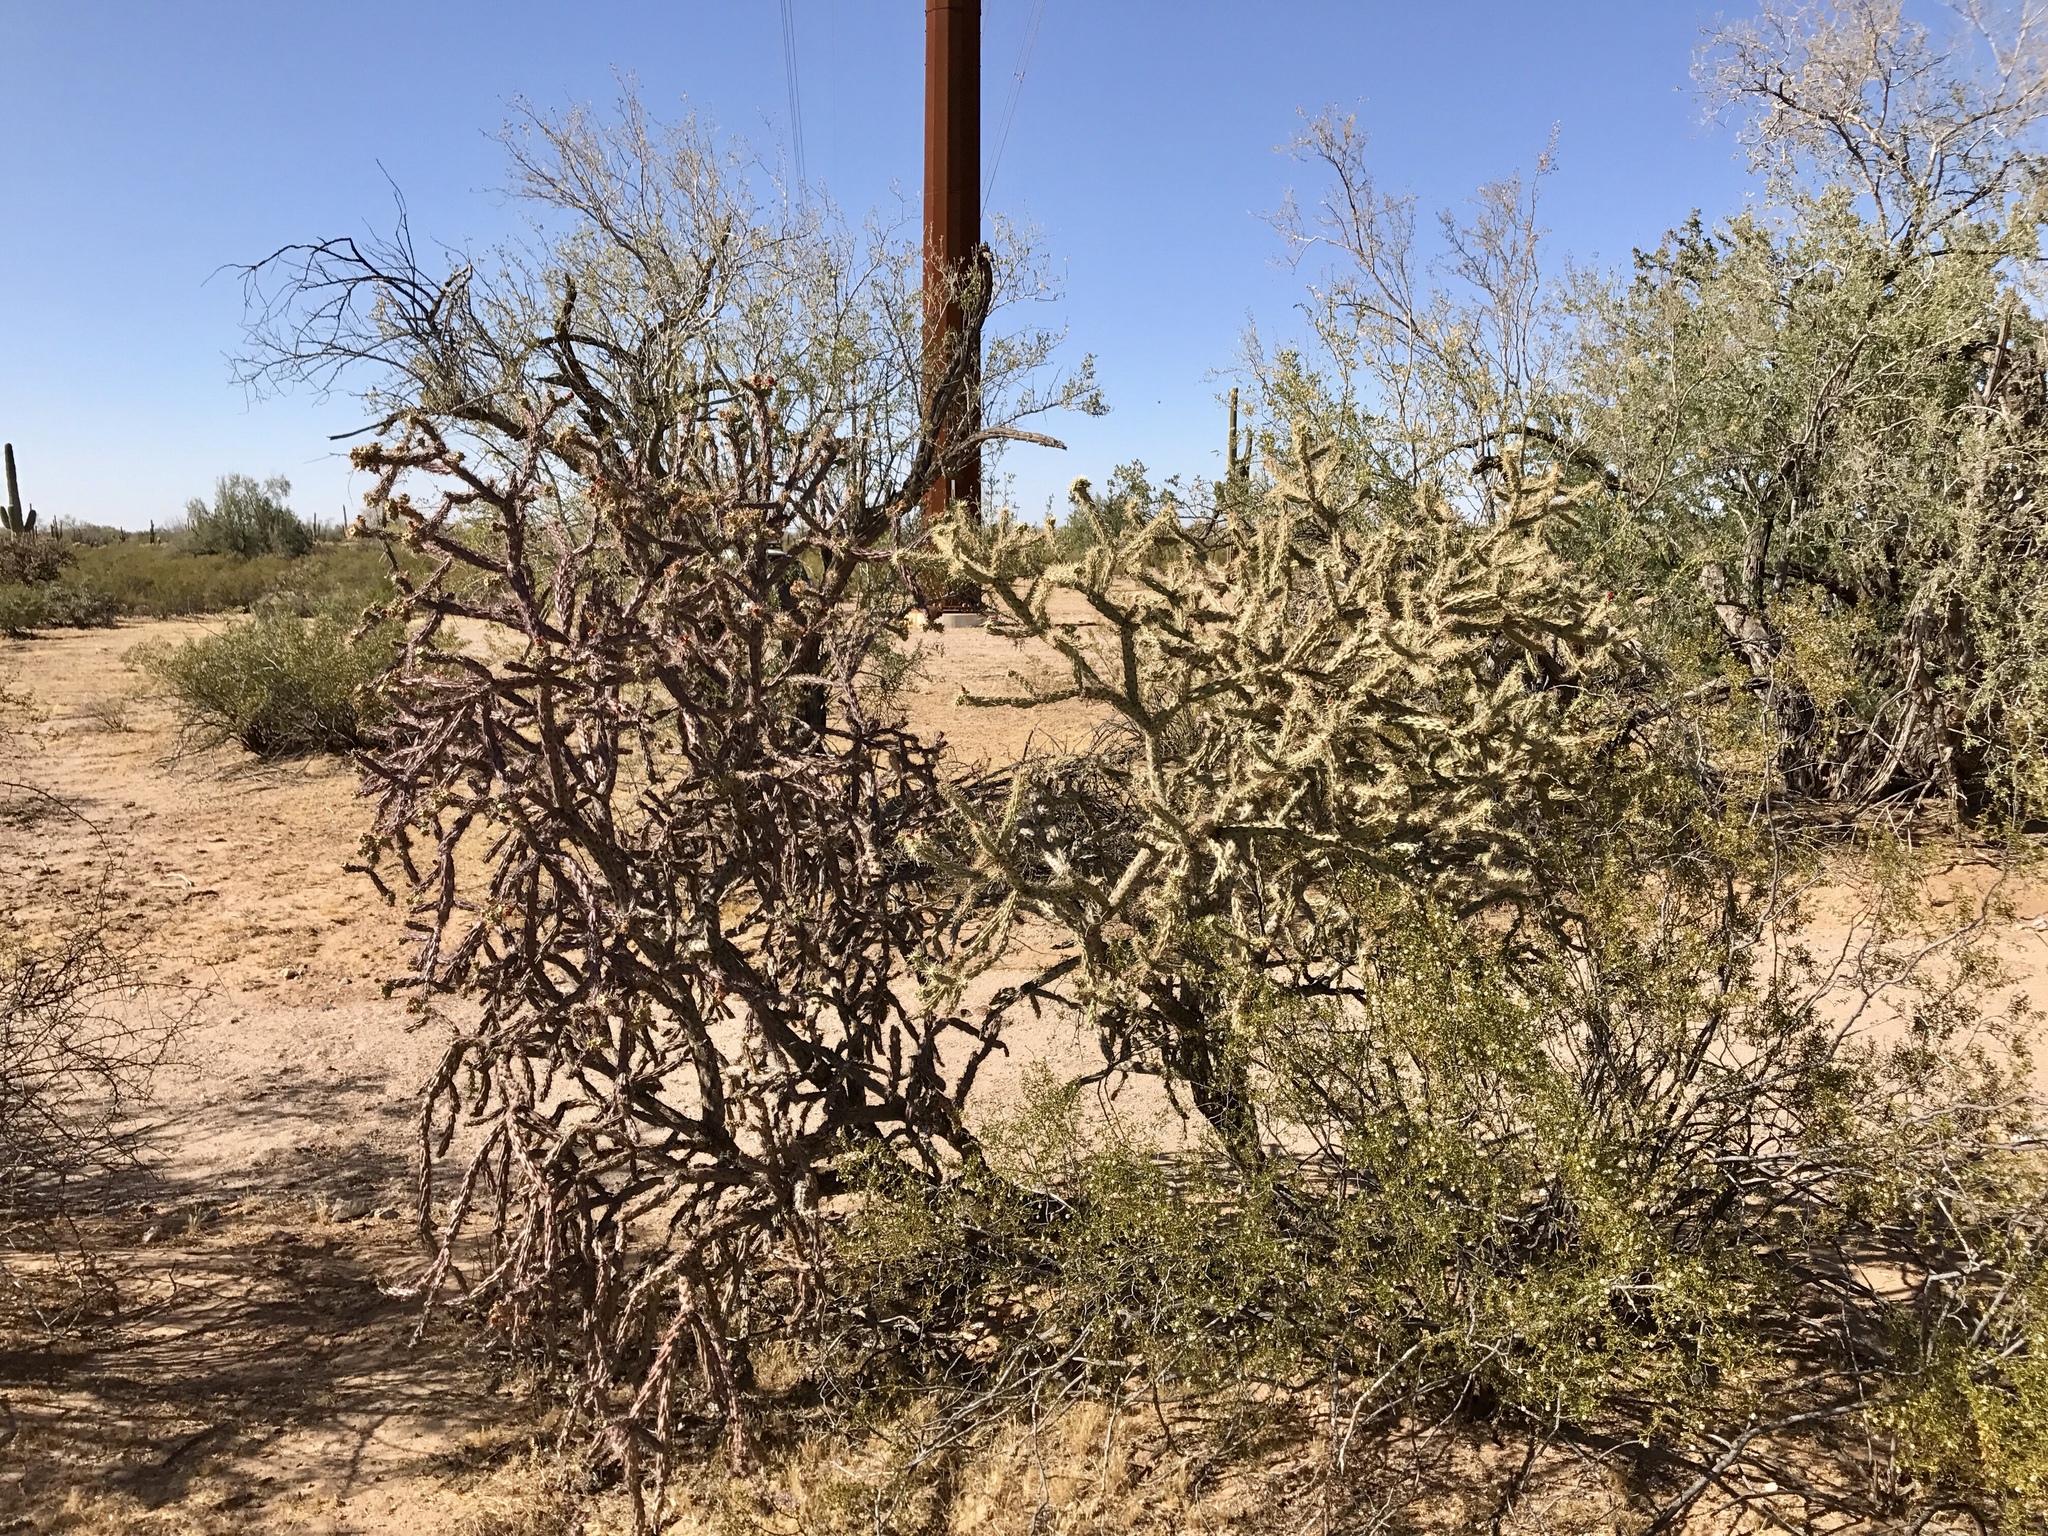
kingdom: Plantae
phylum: Tracheophyta
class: Magnoliopsida
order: Caryophyllales
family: Cactaceae
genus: Cylindropuntia
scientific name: Cylindropuntia thurberi
